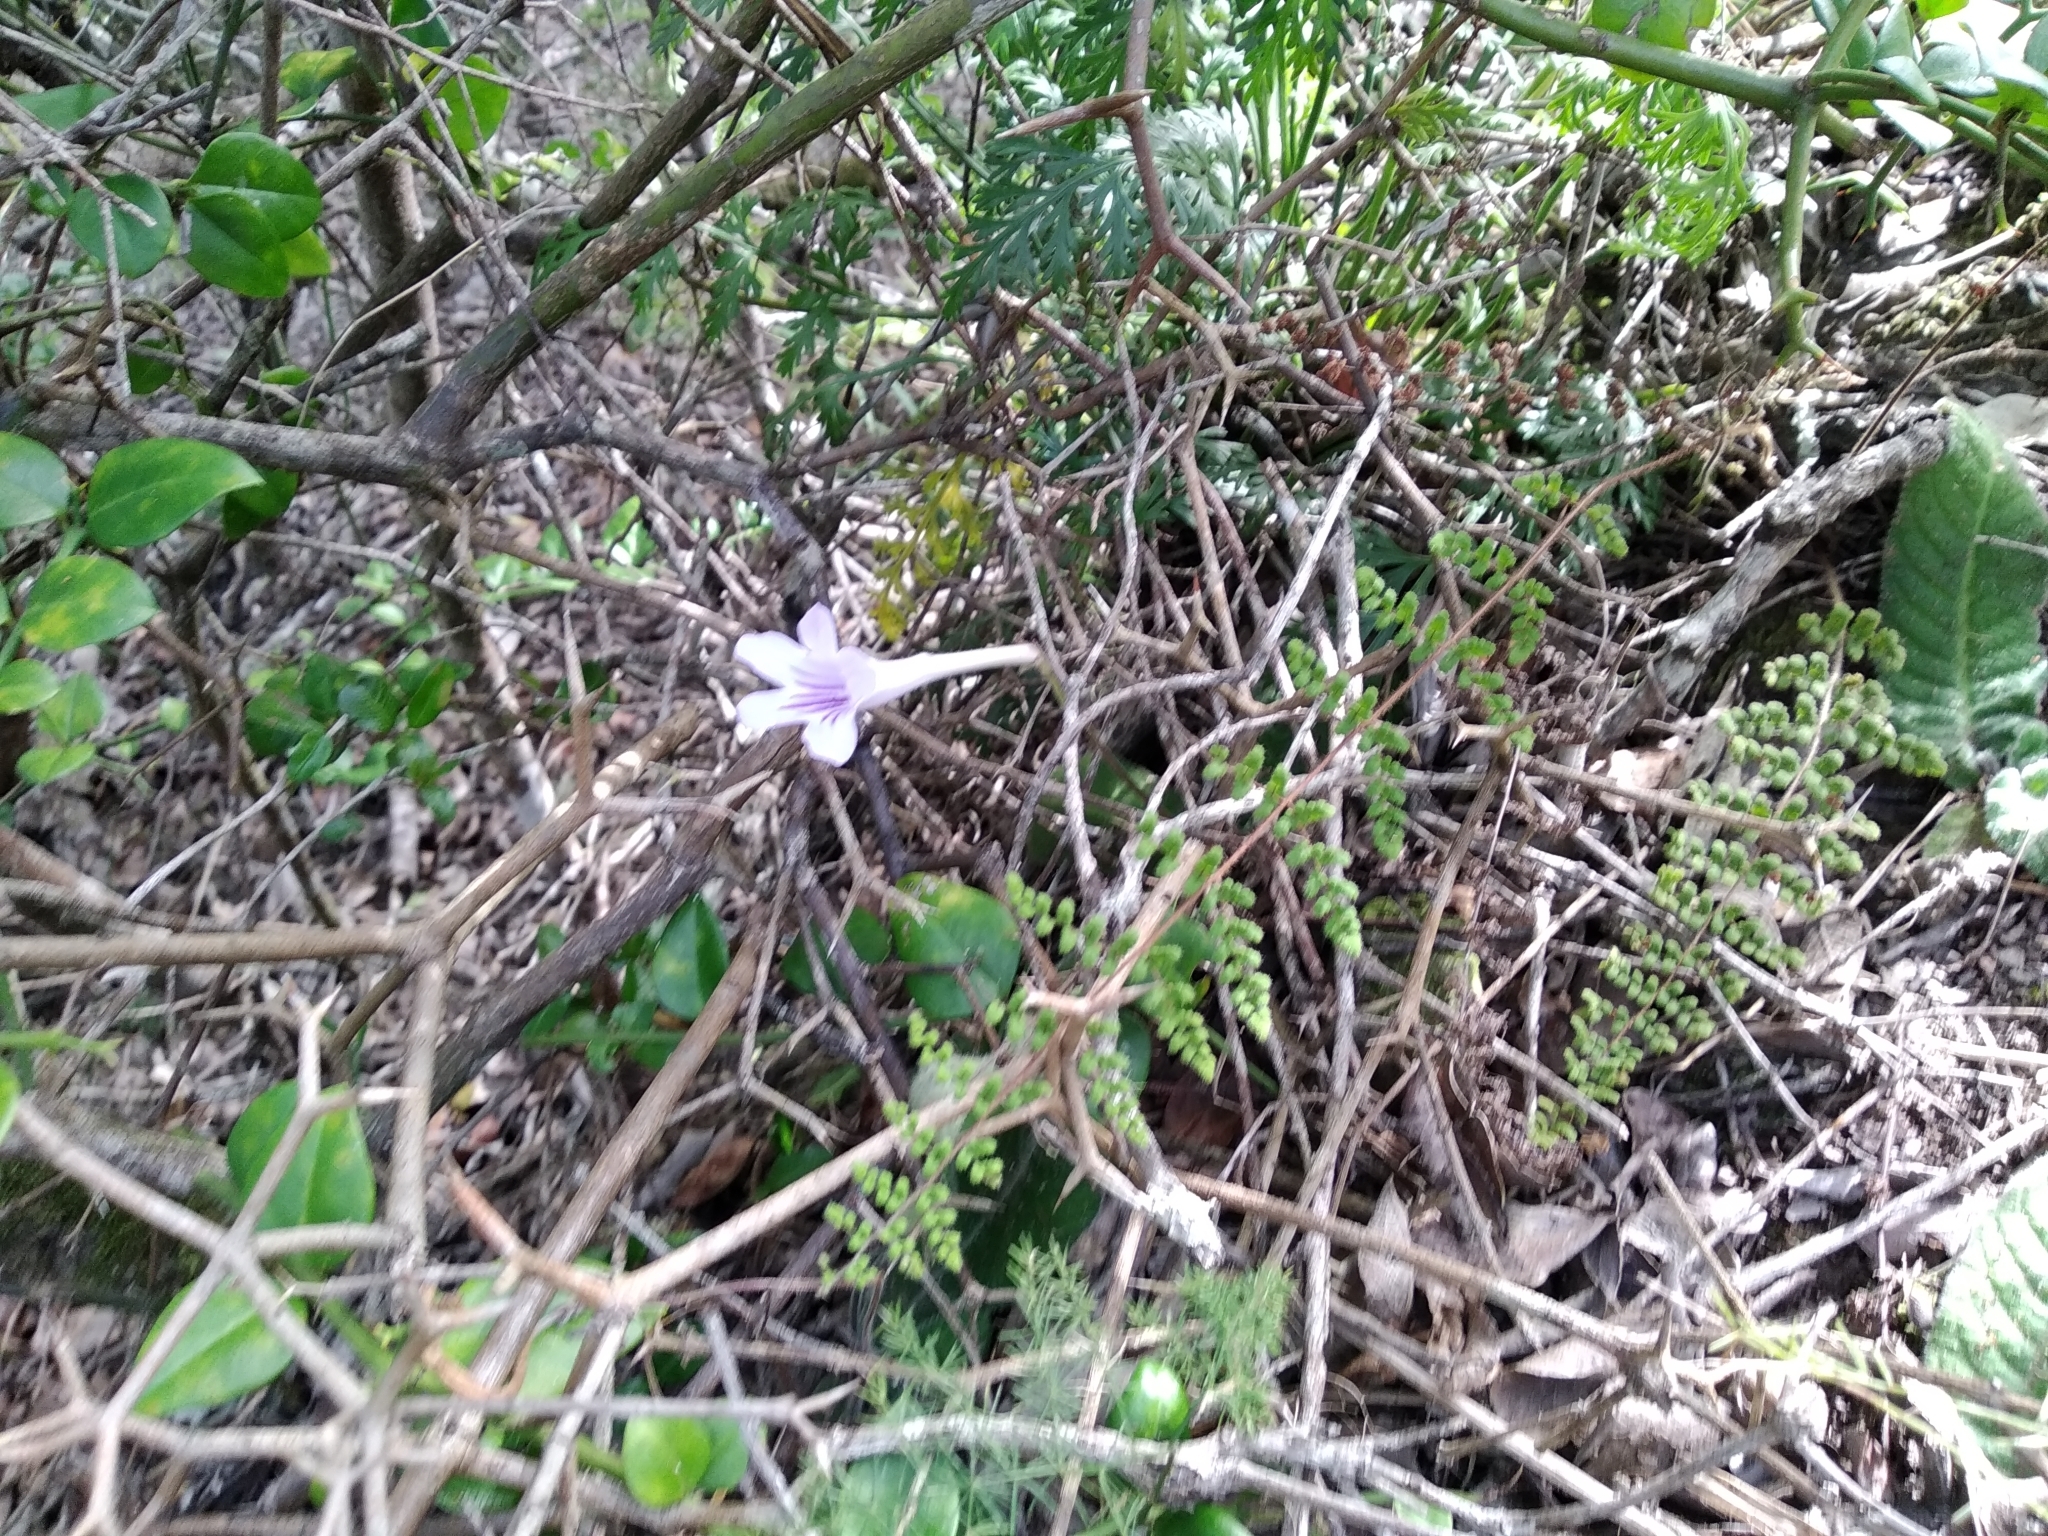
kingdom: Plantae
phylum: Tracheophyta
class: Magnoliopsida
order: Lamiales
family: Gesneriaceae
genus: Streptocarpus
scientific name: Streptocarpus rexii
